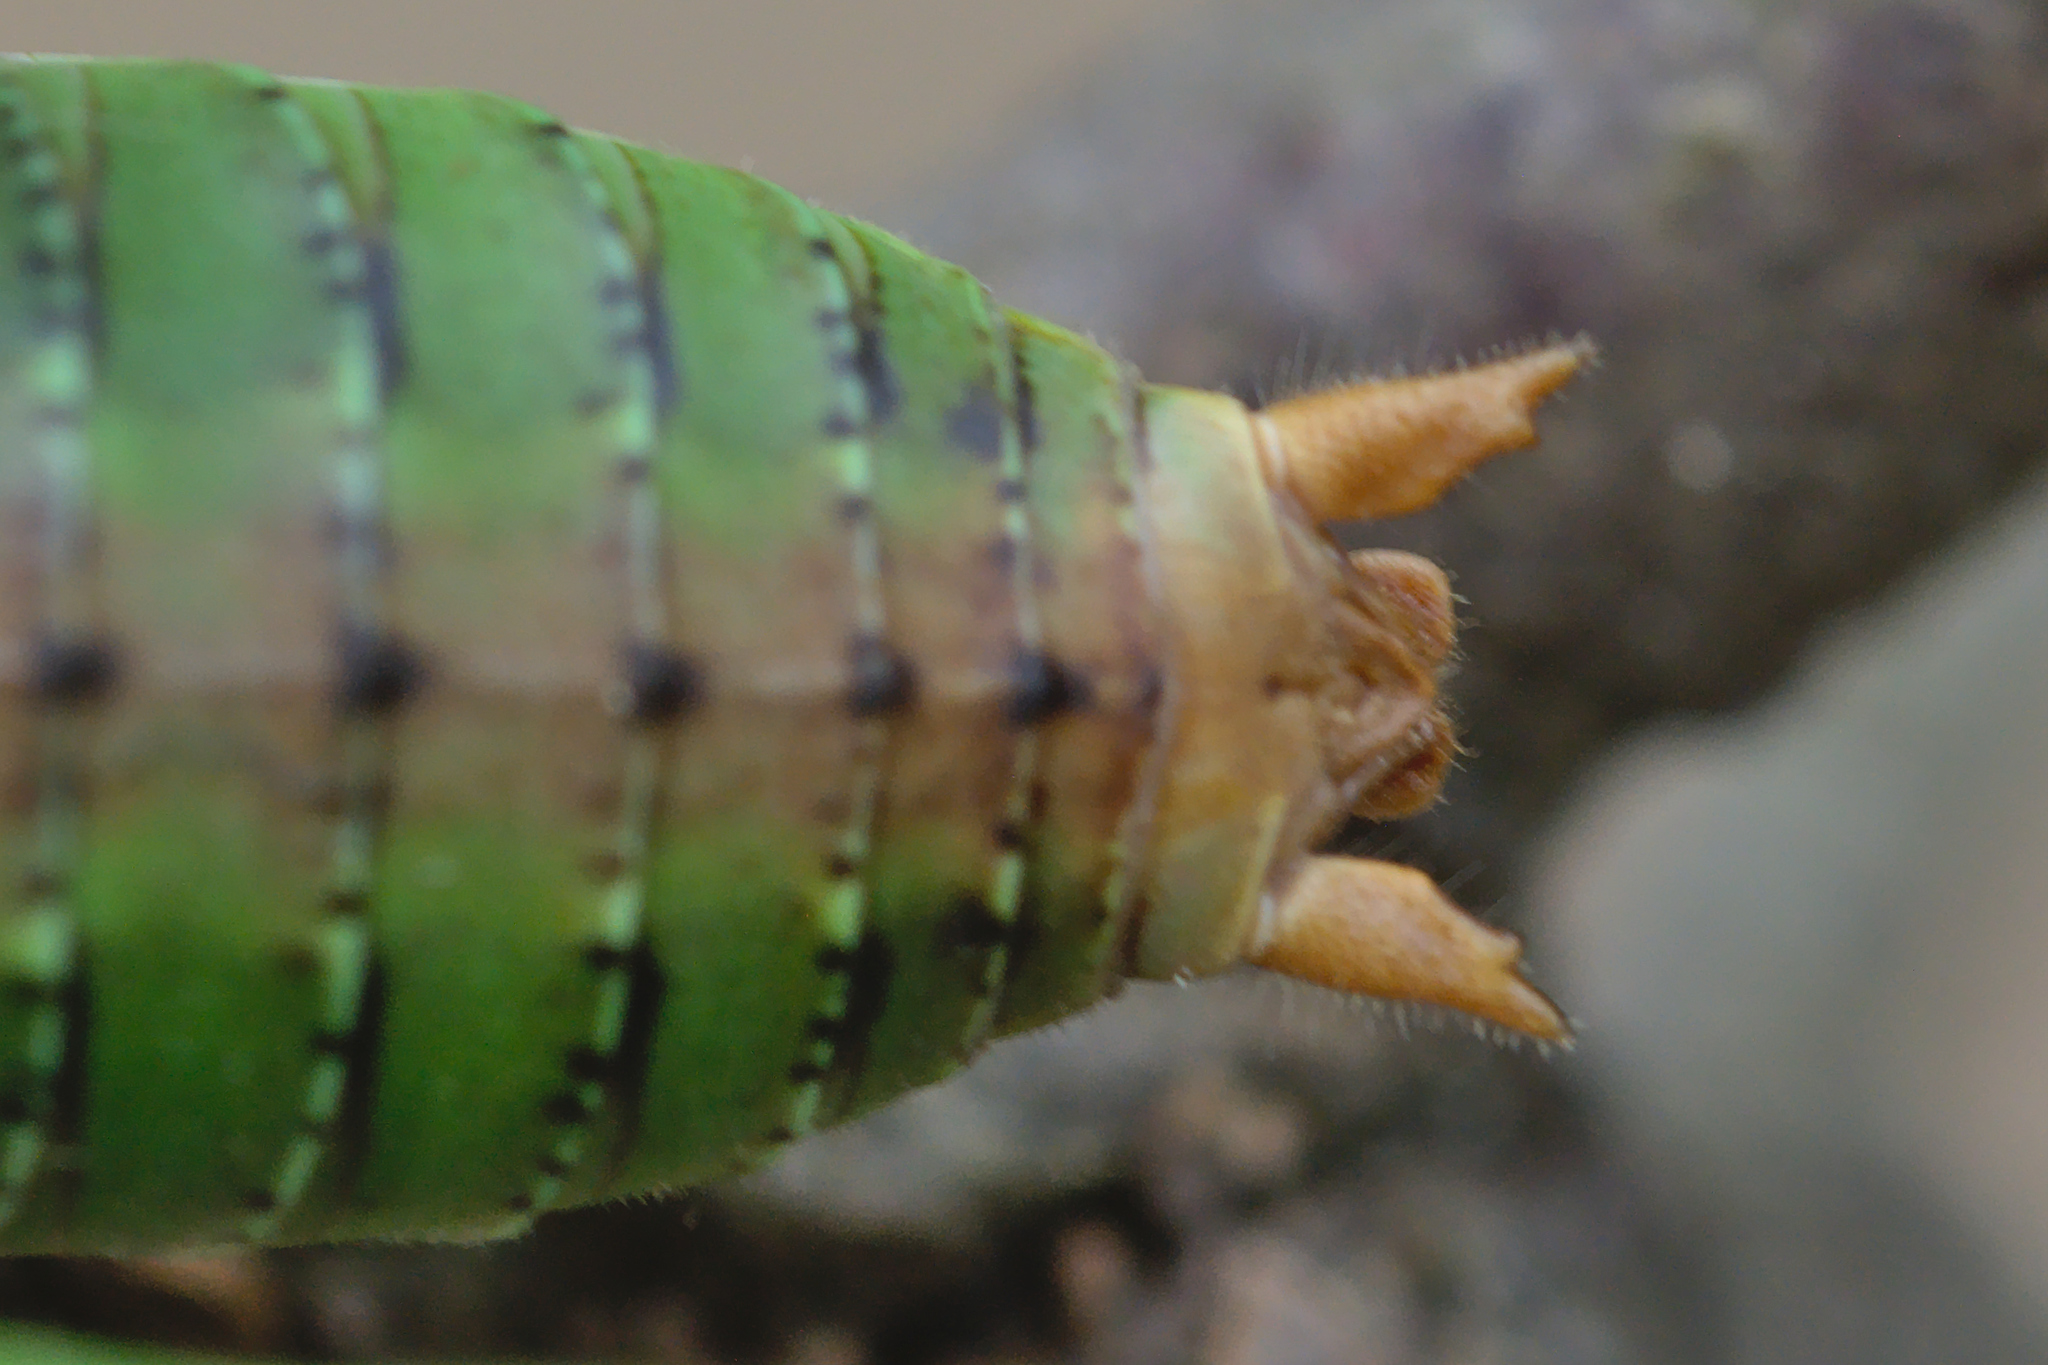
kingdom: Animalia
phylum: Arthropoda
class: Insecta
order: Orthoptera
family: Tettigoniidae
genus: Antaxius
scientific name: Antaxius chopardi
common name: Chopard's mountain bush-cricket
